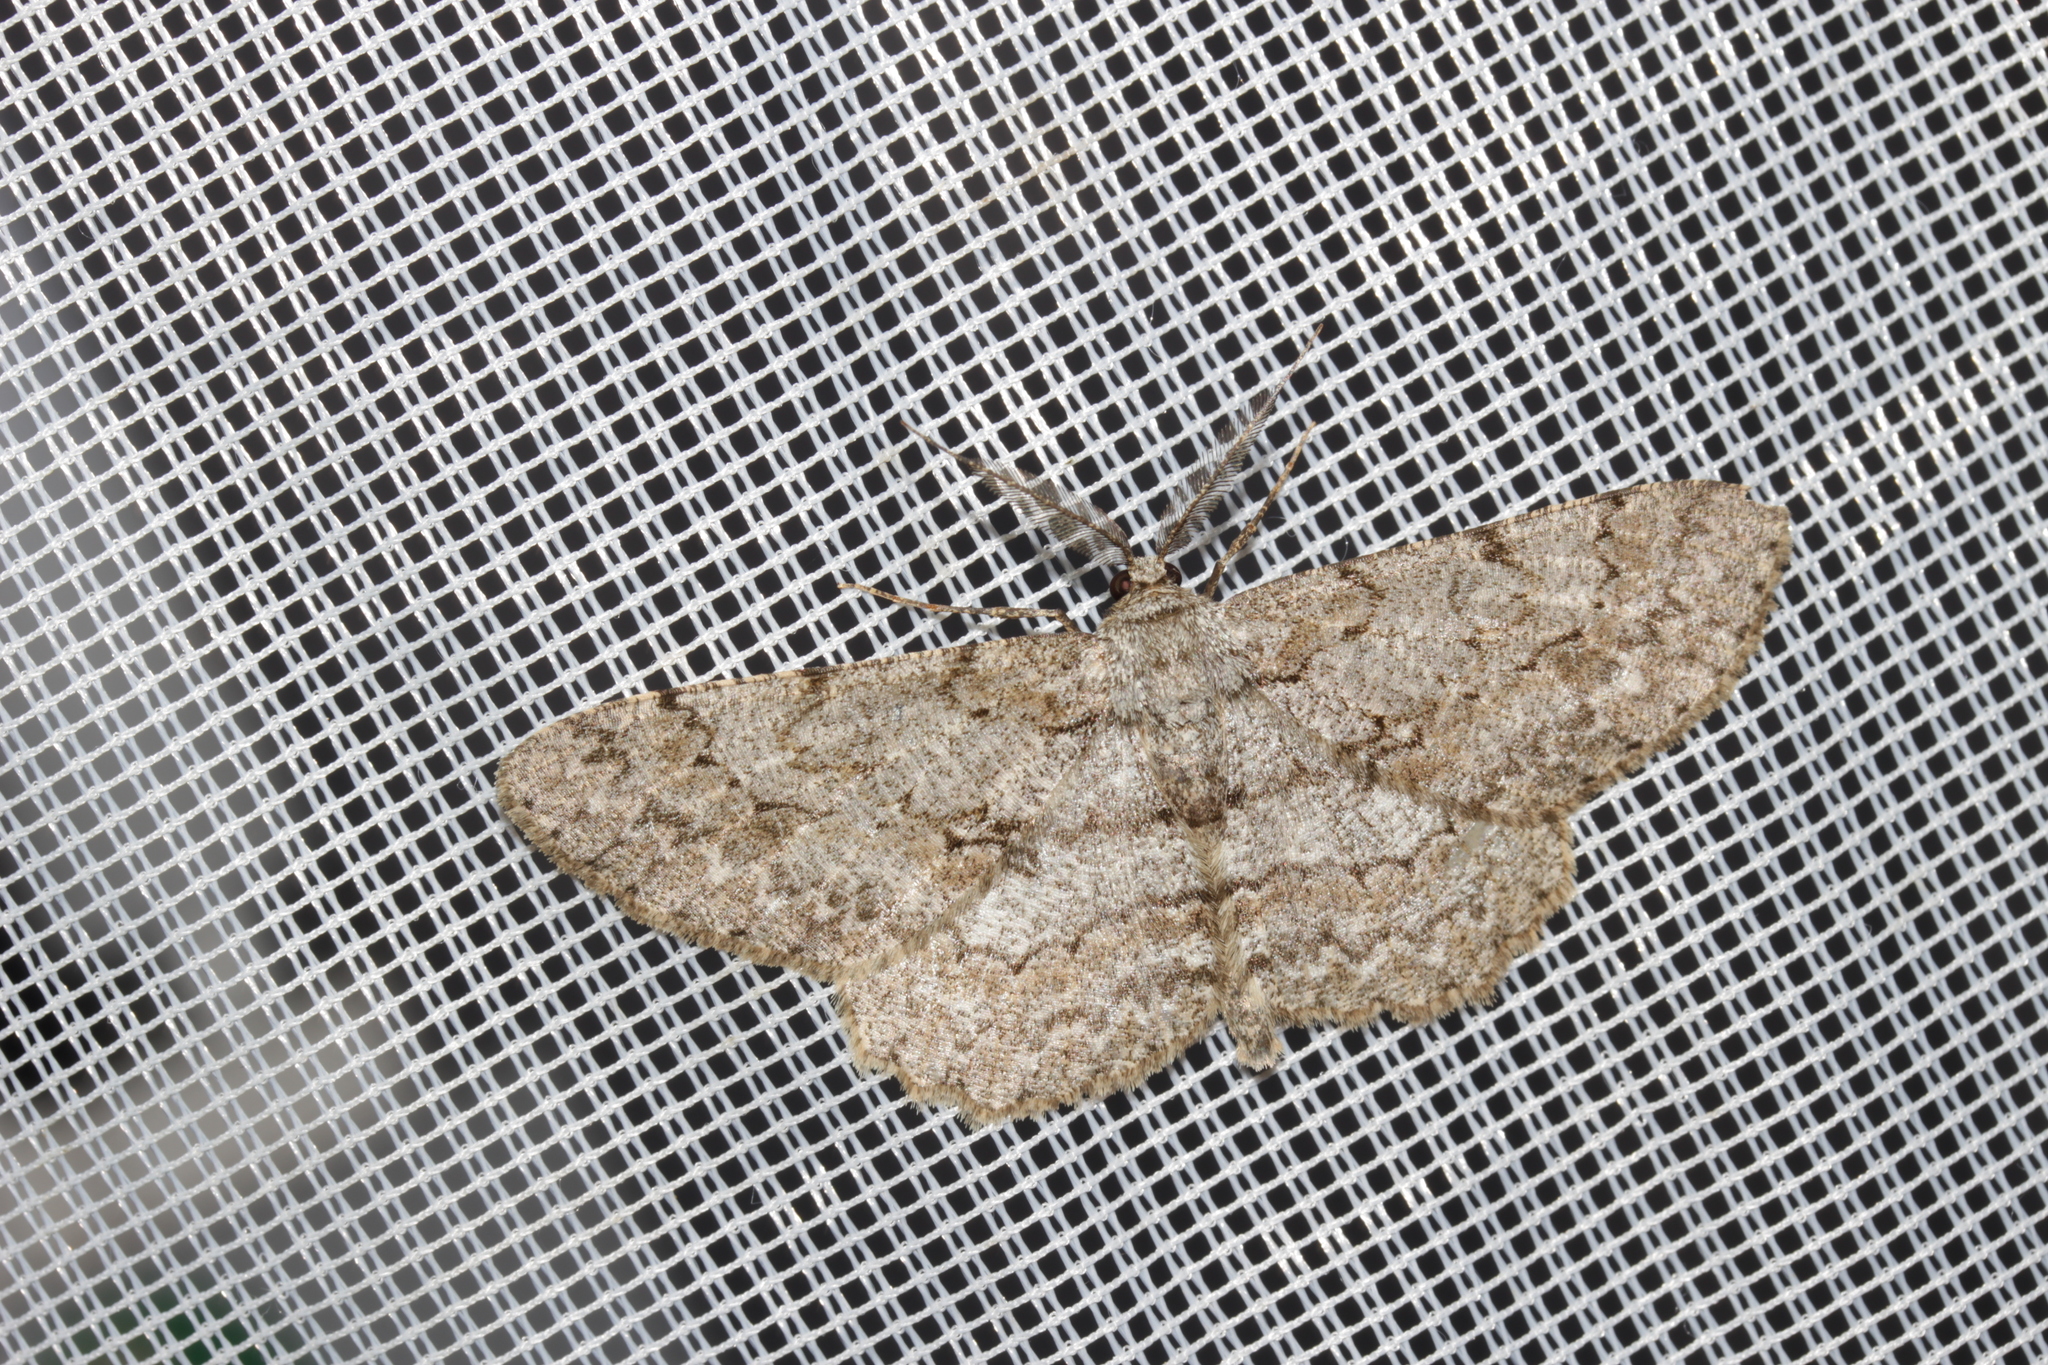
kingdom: Animalia
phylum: Arthropoda
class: Insecta
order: Lepidoptera
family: Geometridae
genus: Hypomecis
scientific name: Hypomecis punctinalis
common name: Pale oak beauty
